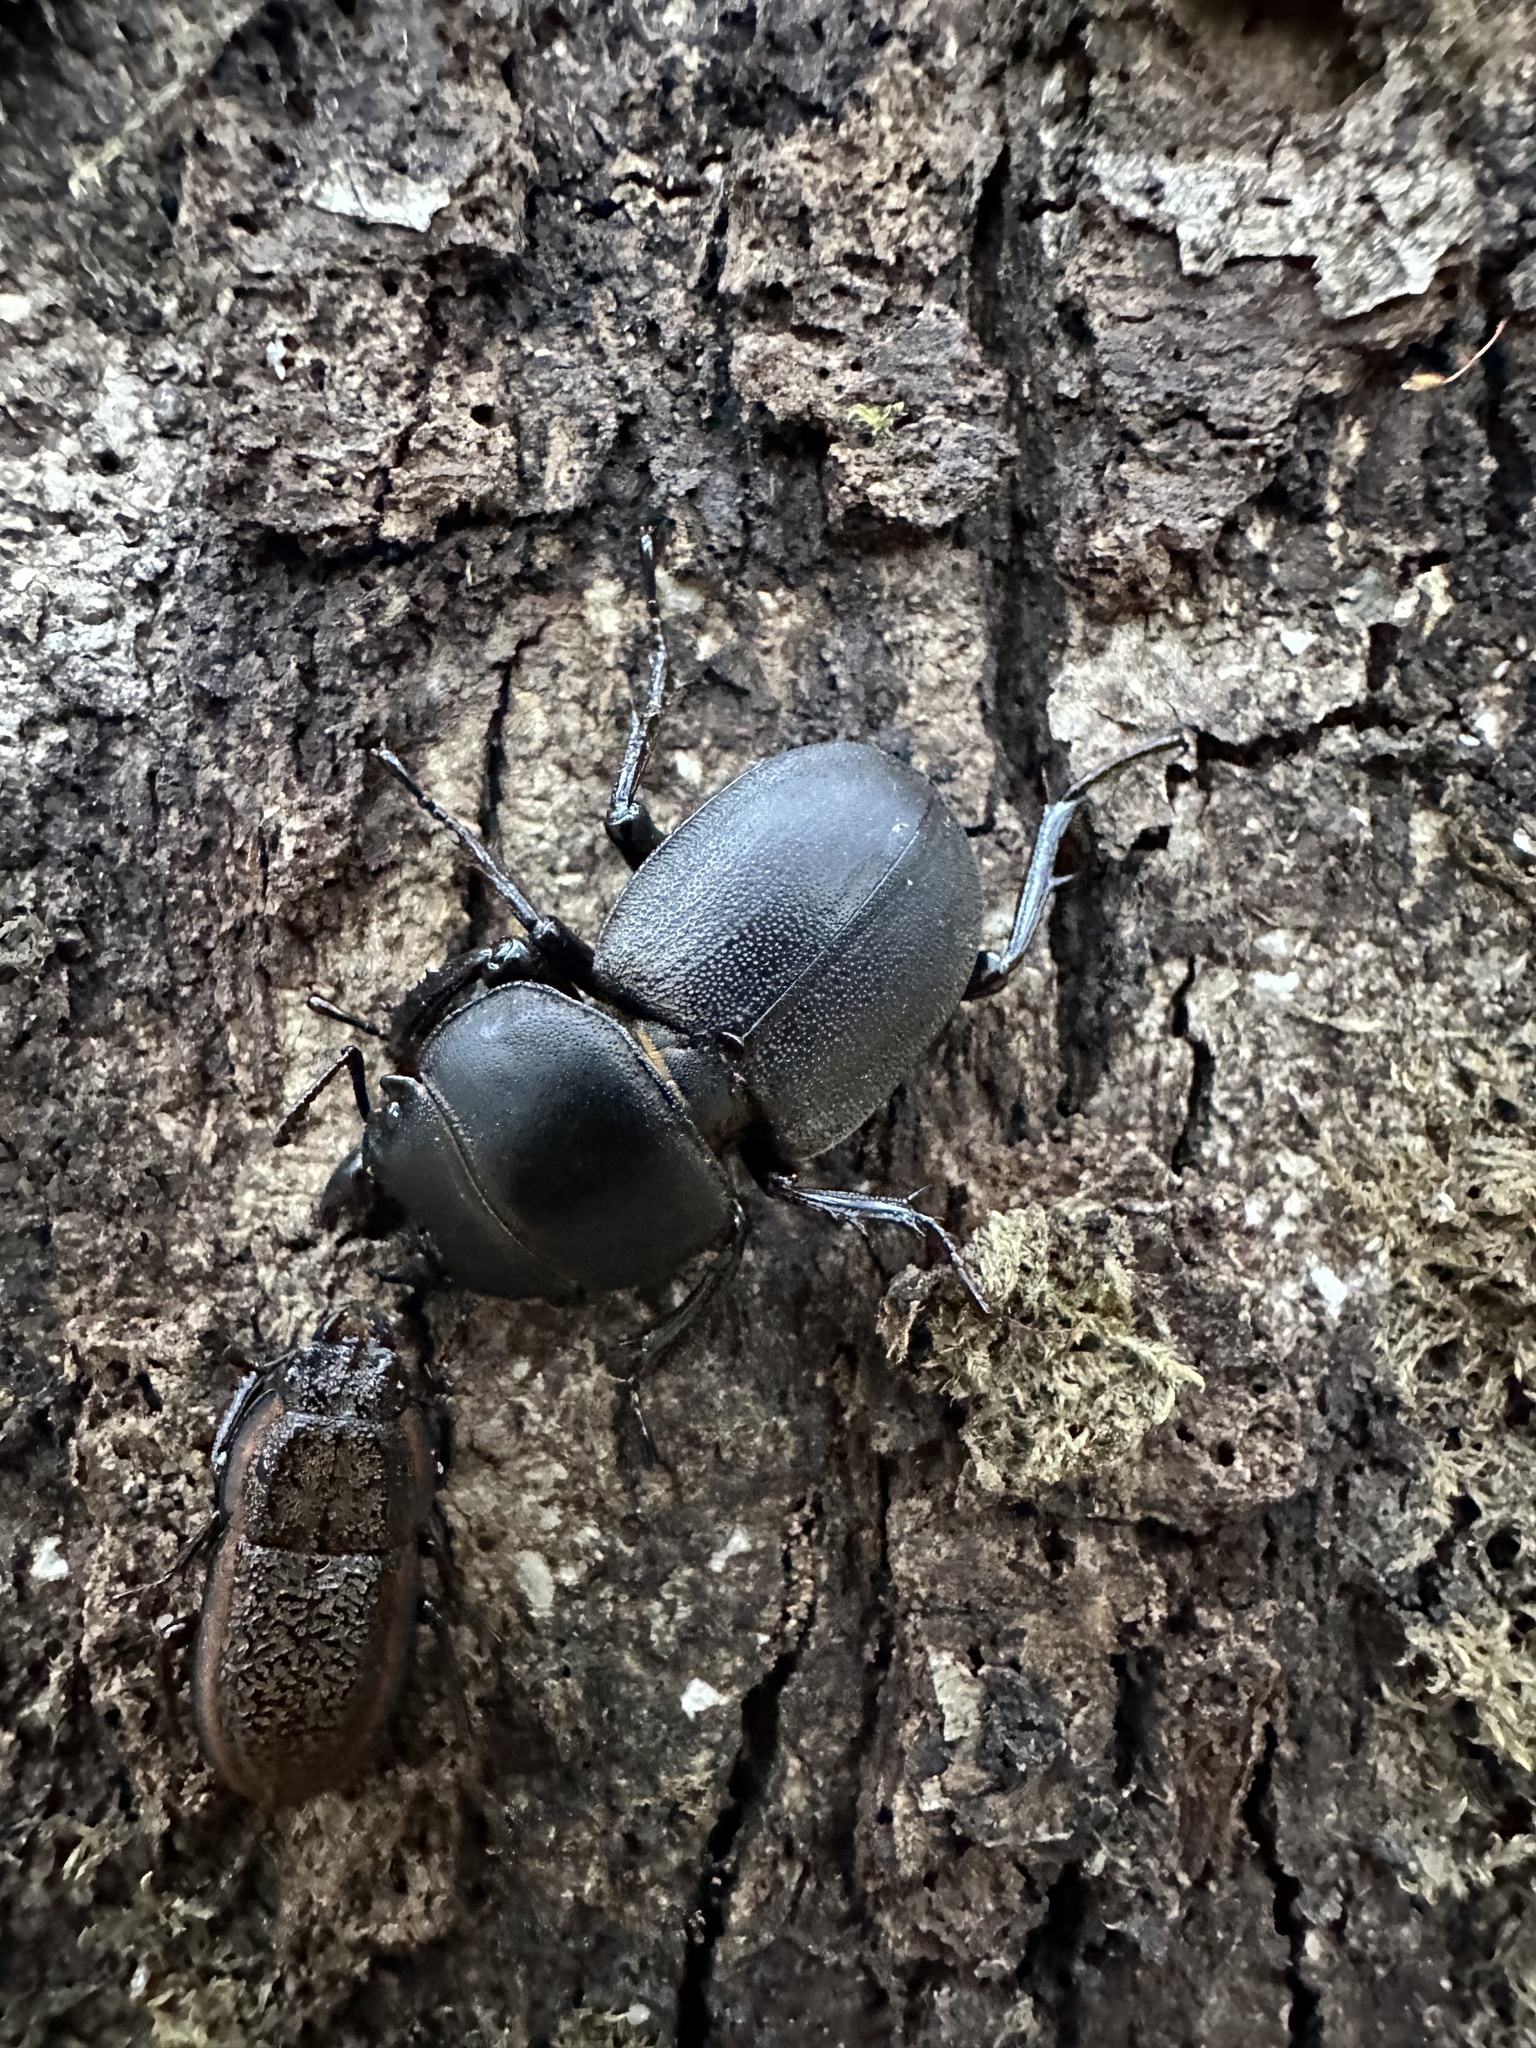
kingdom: Animalia
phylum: Arthropoda
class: Insecta
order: Coleoptera
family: Lucanidae
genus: Apterodorcus
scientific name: Apterodorcus bacchus
